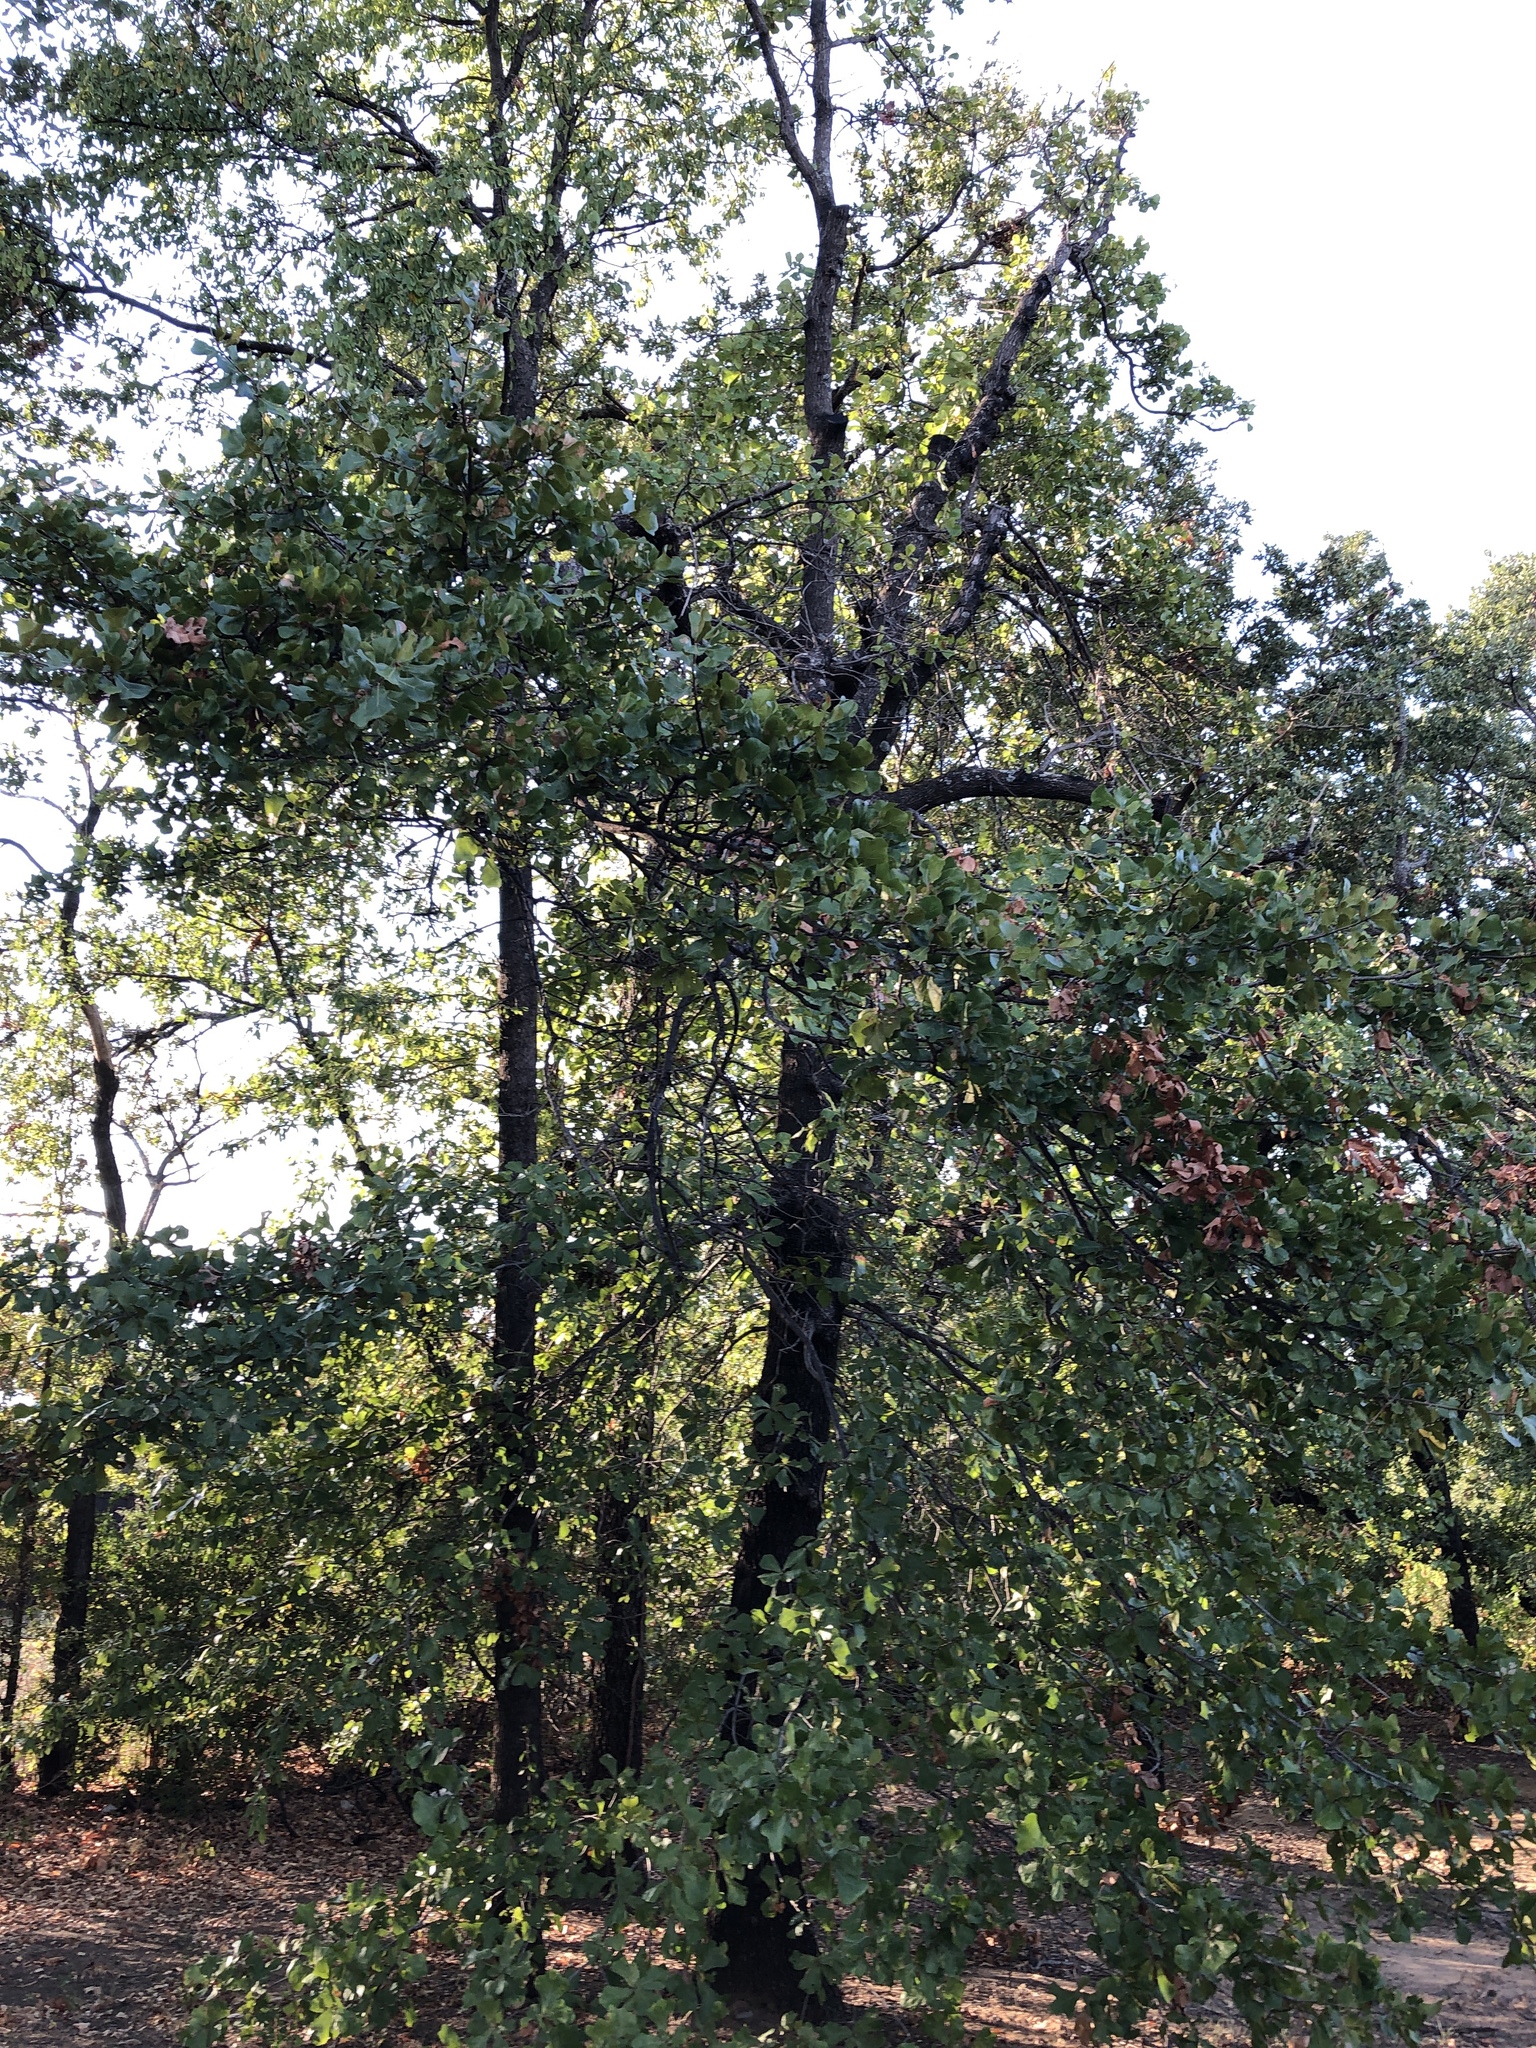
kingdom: Plantae
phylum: Tracheophyta
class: Magnoliopsida
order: Fagales
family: Fagaceae
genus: Quercus
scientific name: Quercus marilandica
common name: Blackjack oak
